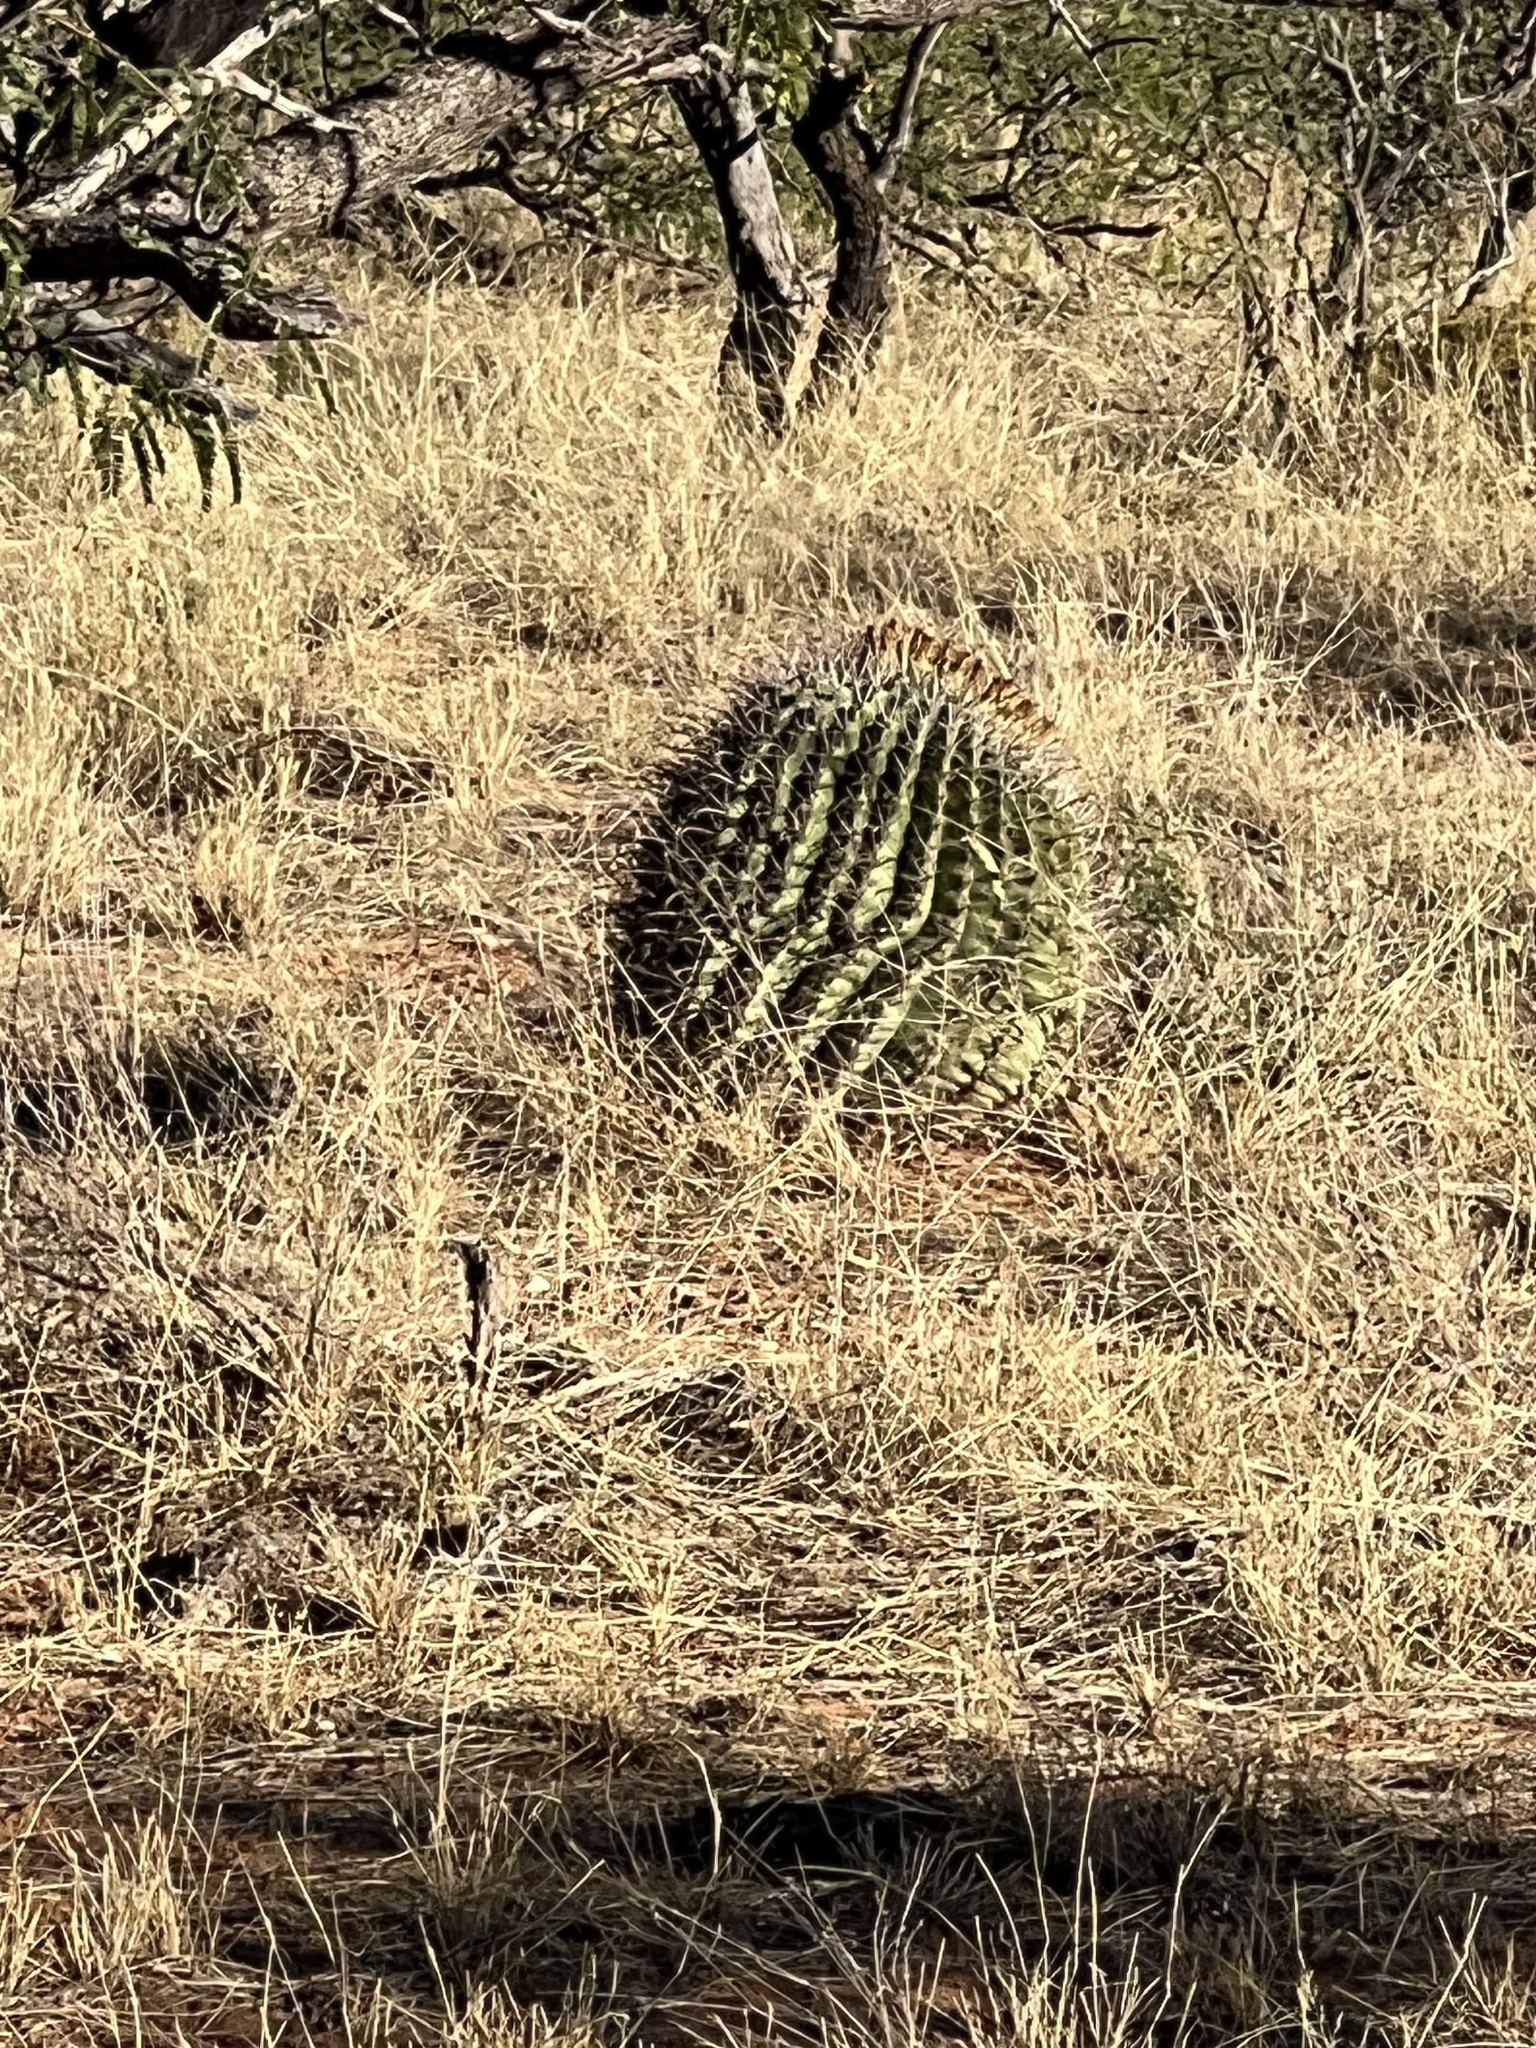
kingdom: Plantae
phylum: Tracheophyta
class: Magnoliopsida
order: Caryophyllales
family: Cactaceae
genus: Ferocactus
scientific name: Ferocactus wislizeni
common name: Candy barrel cactus
